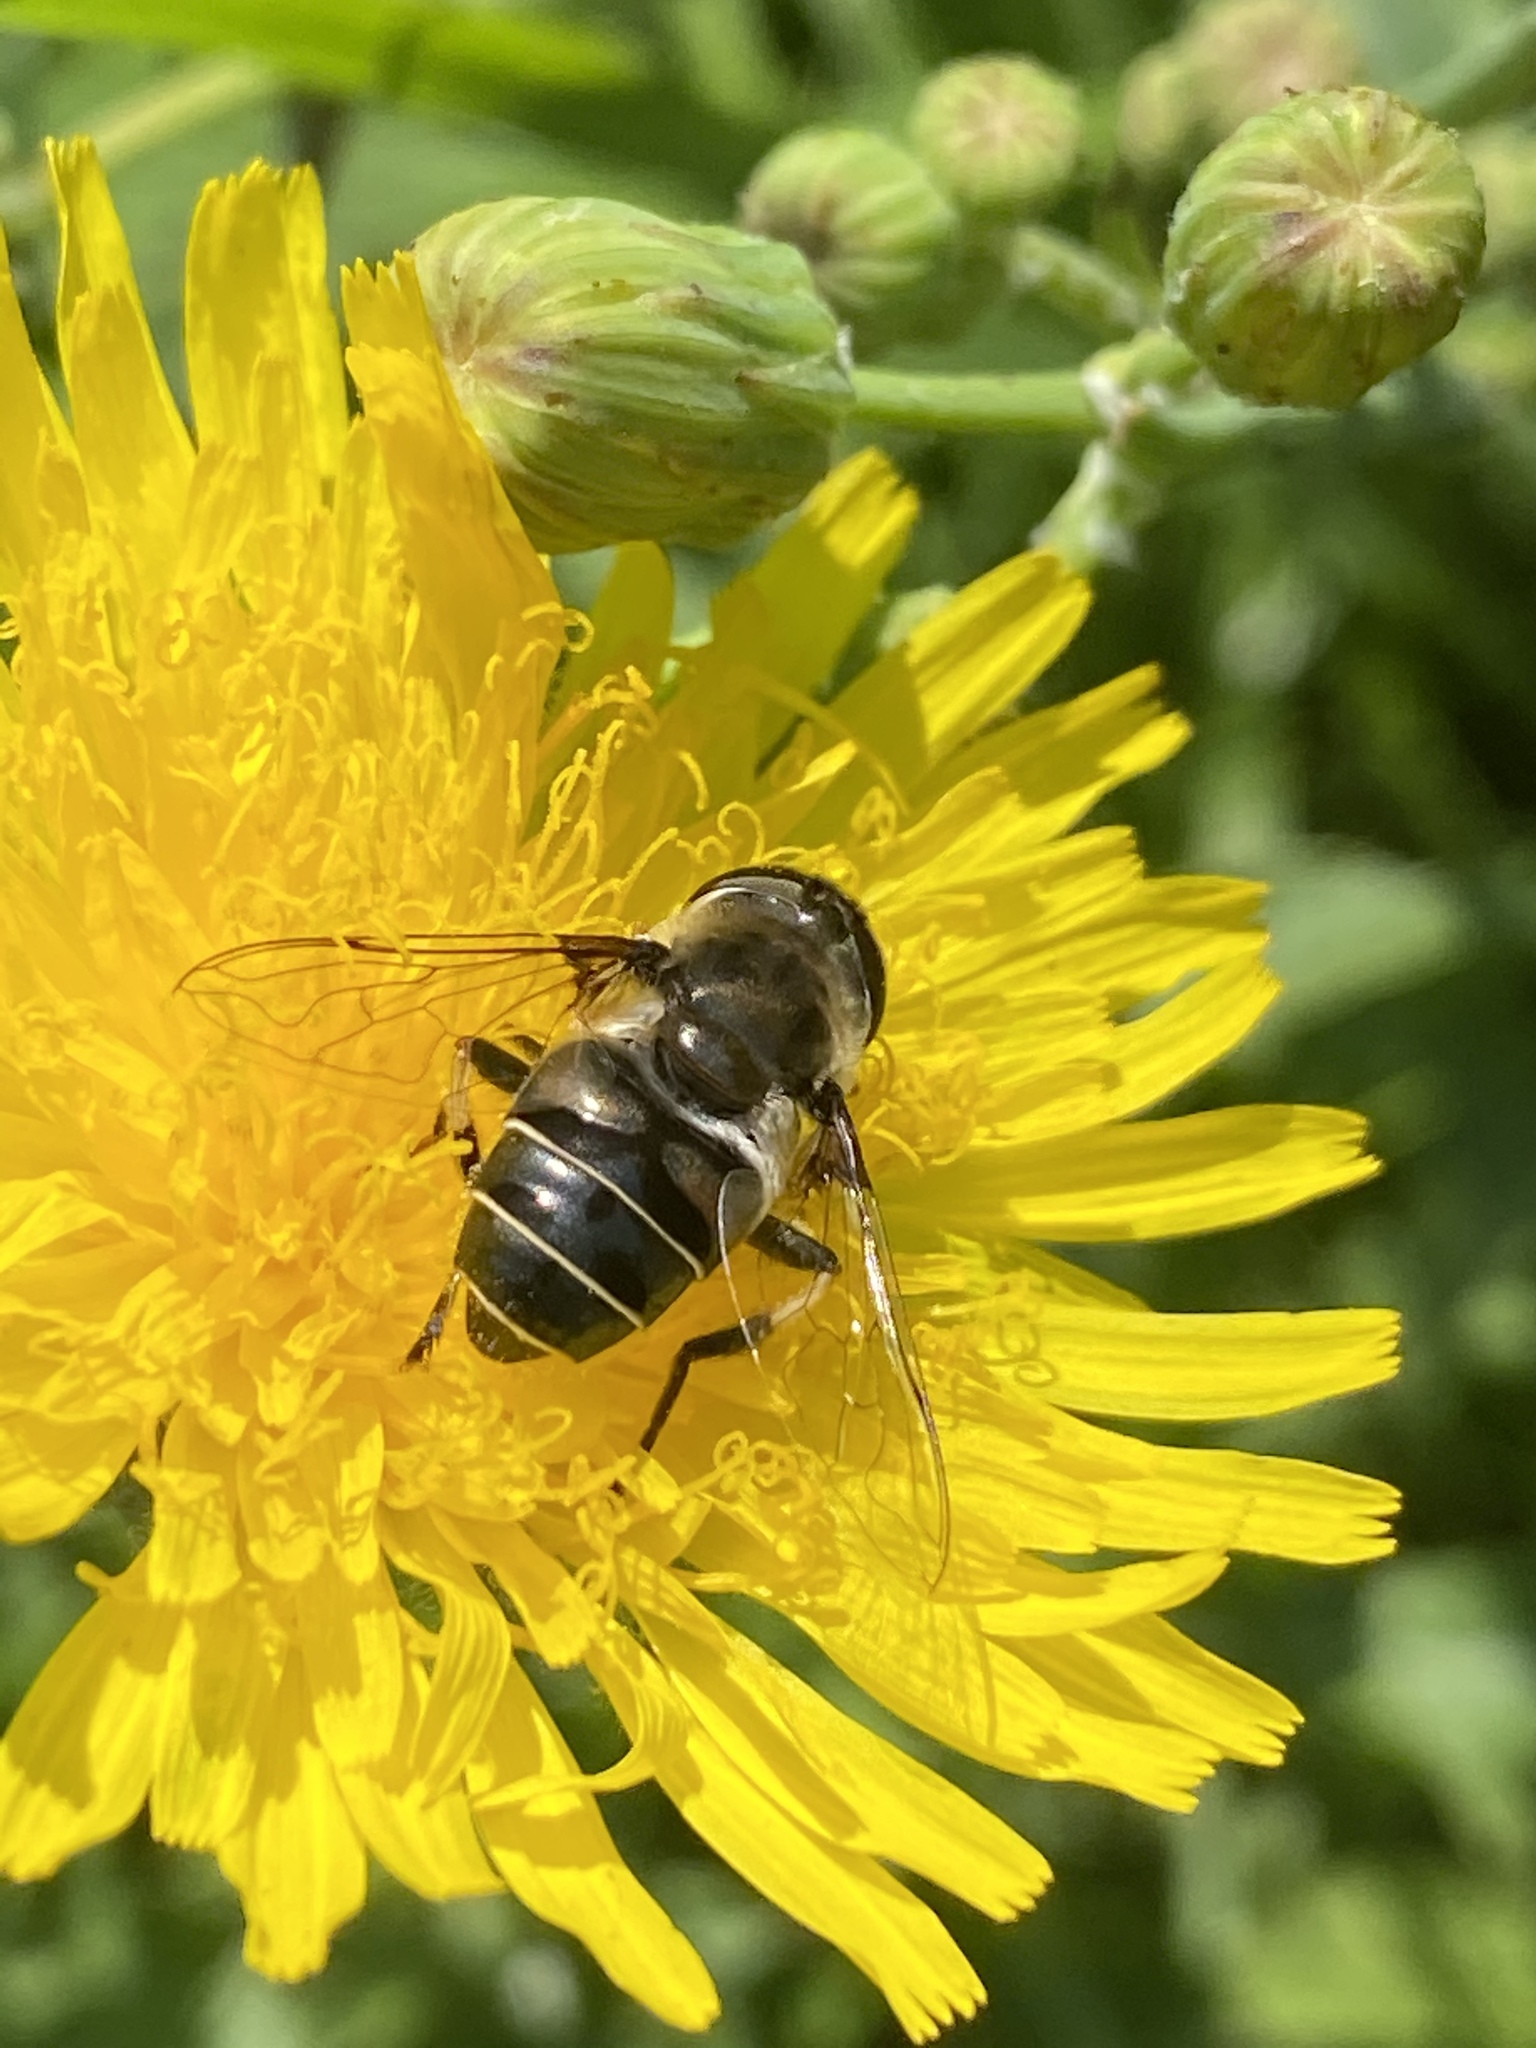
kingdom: Animalia
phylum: Arthropoda
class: Insecta
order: Diptera
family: Syrphidae
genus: Eristalis
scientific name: Eristalis dimidiata
